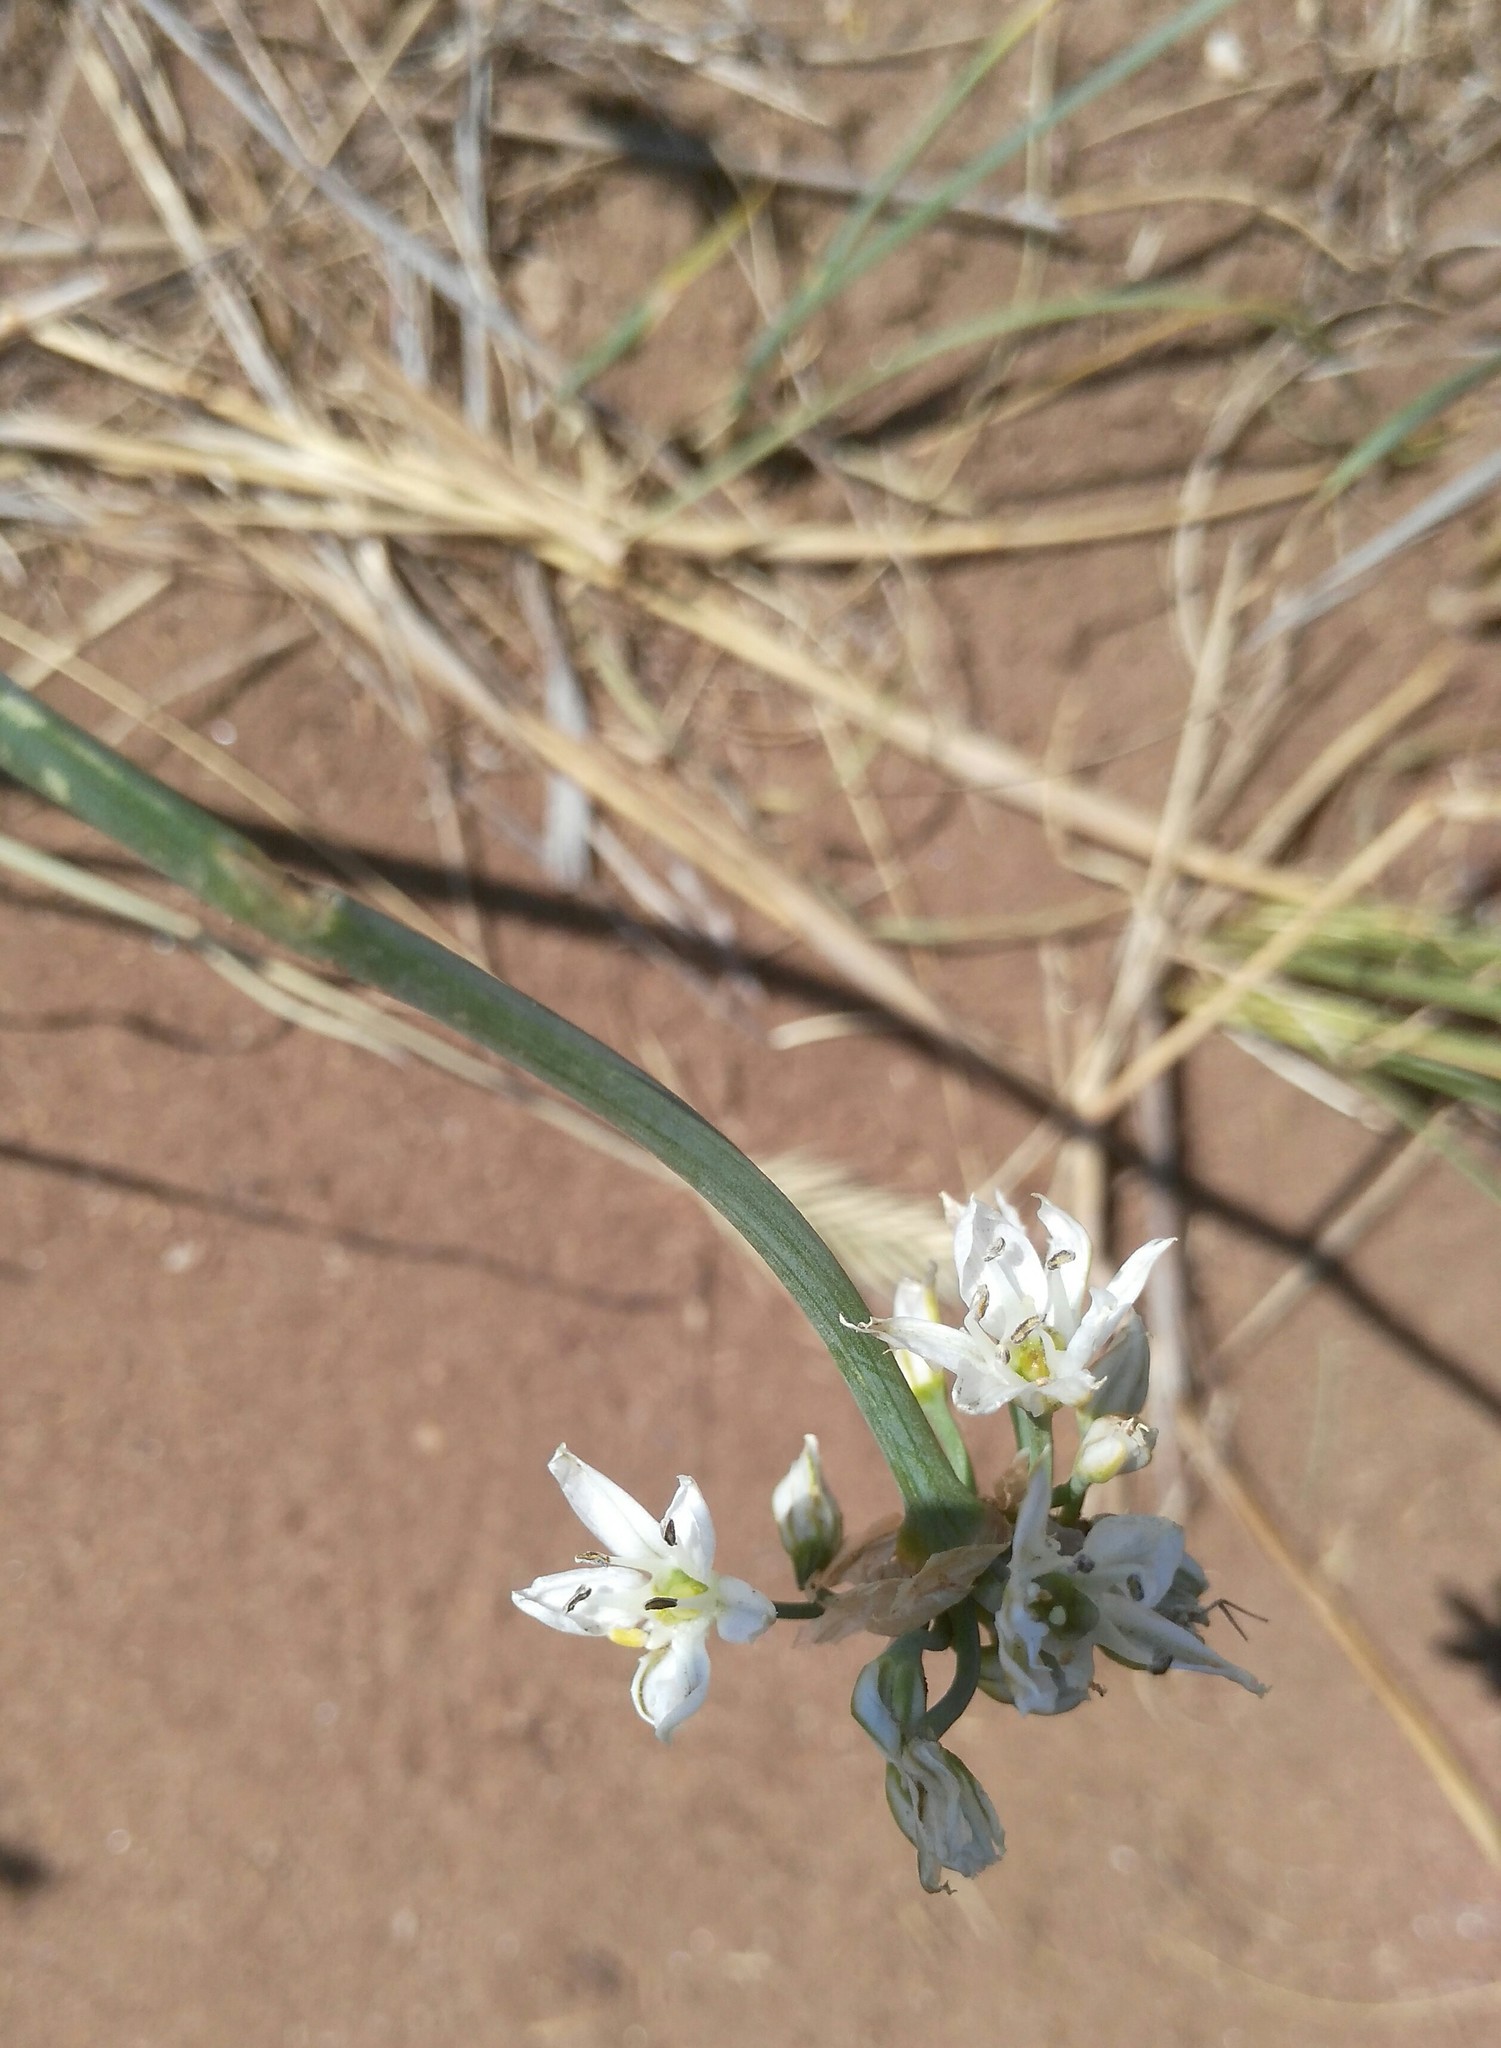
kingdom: Plantae
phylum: Tracheophyta
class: Liliopsida
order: Asparagales
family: Amaryllidaceae
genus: Allium
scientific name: Allium ramosum
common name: Fragrant garlic
